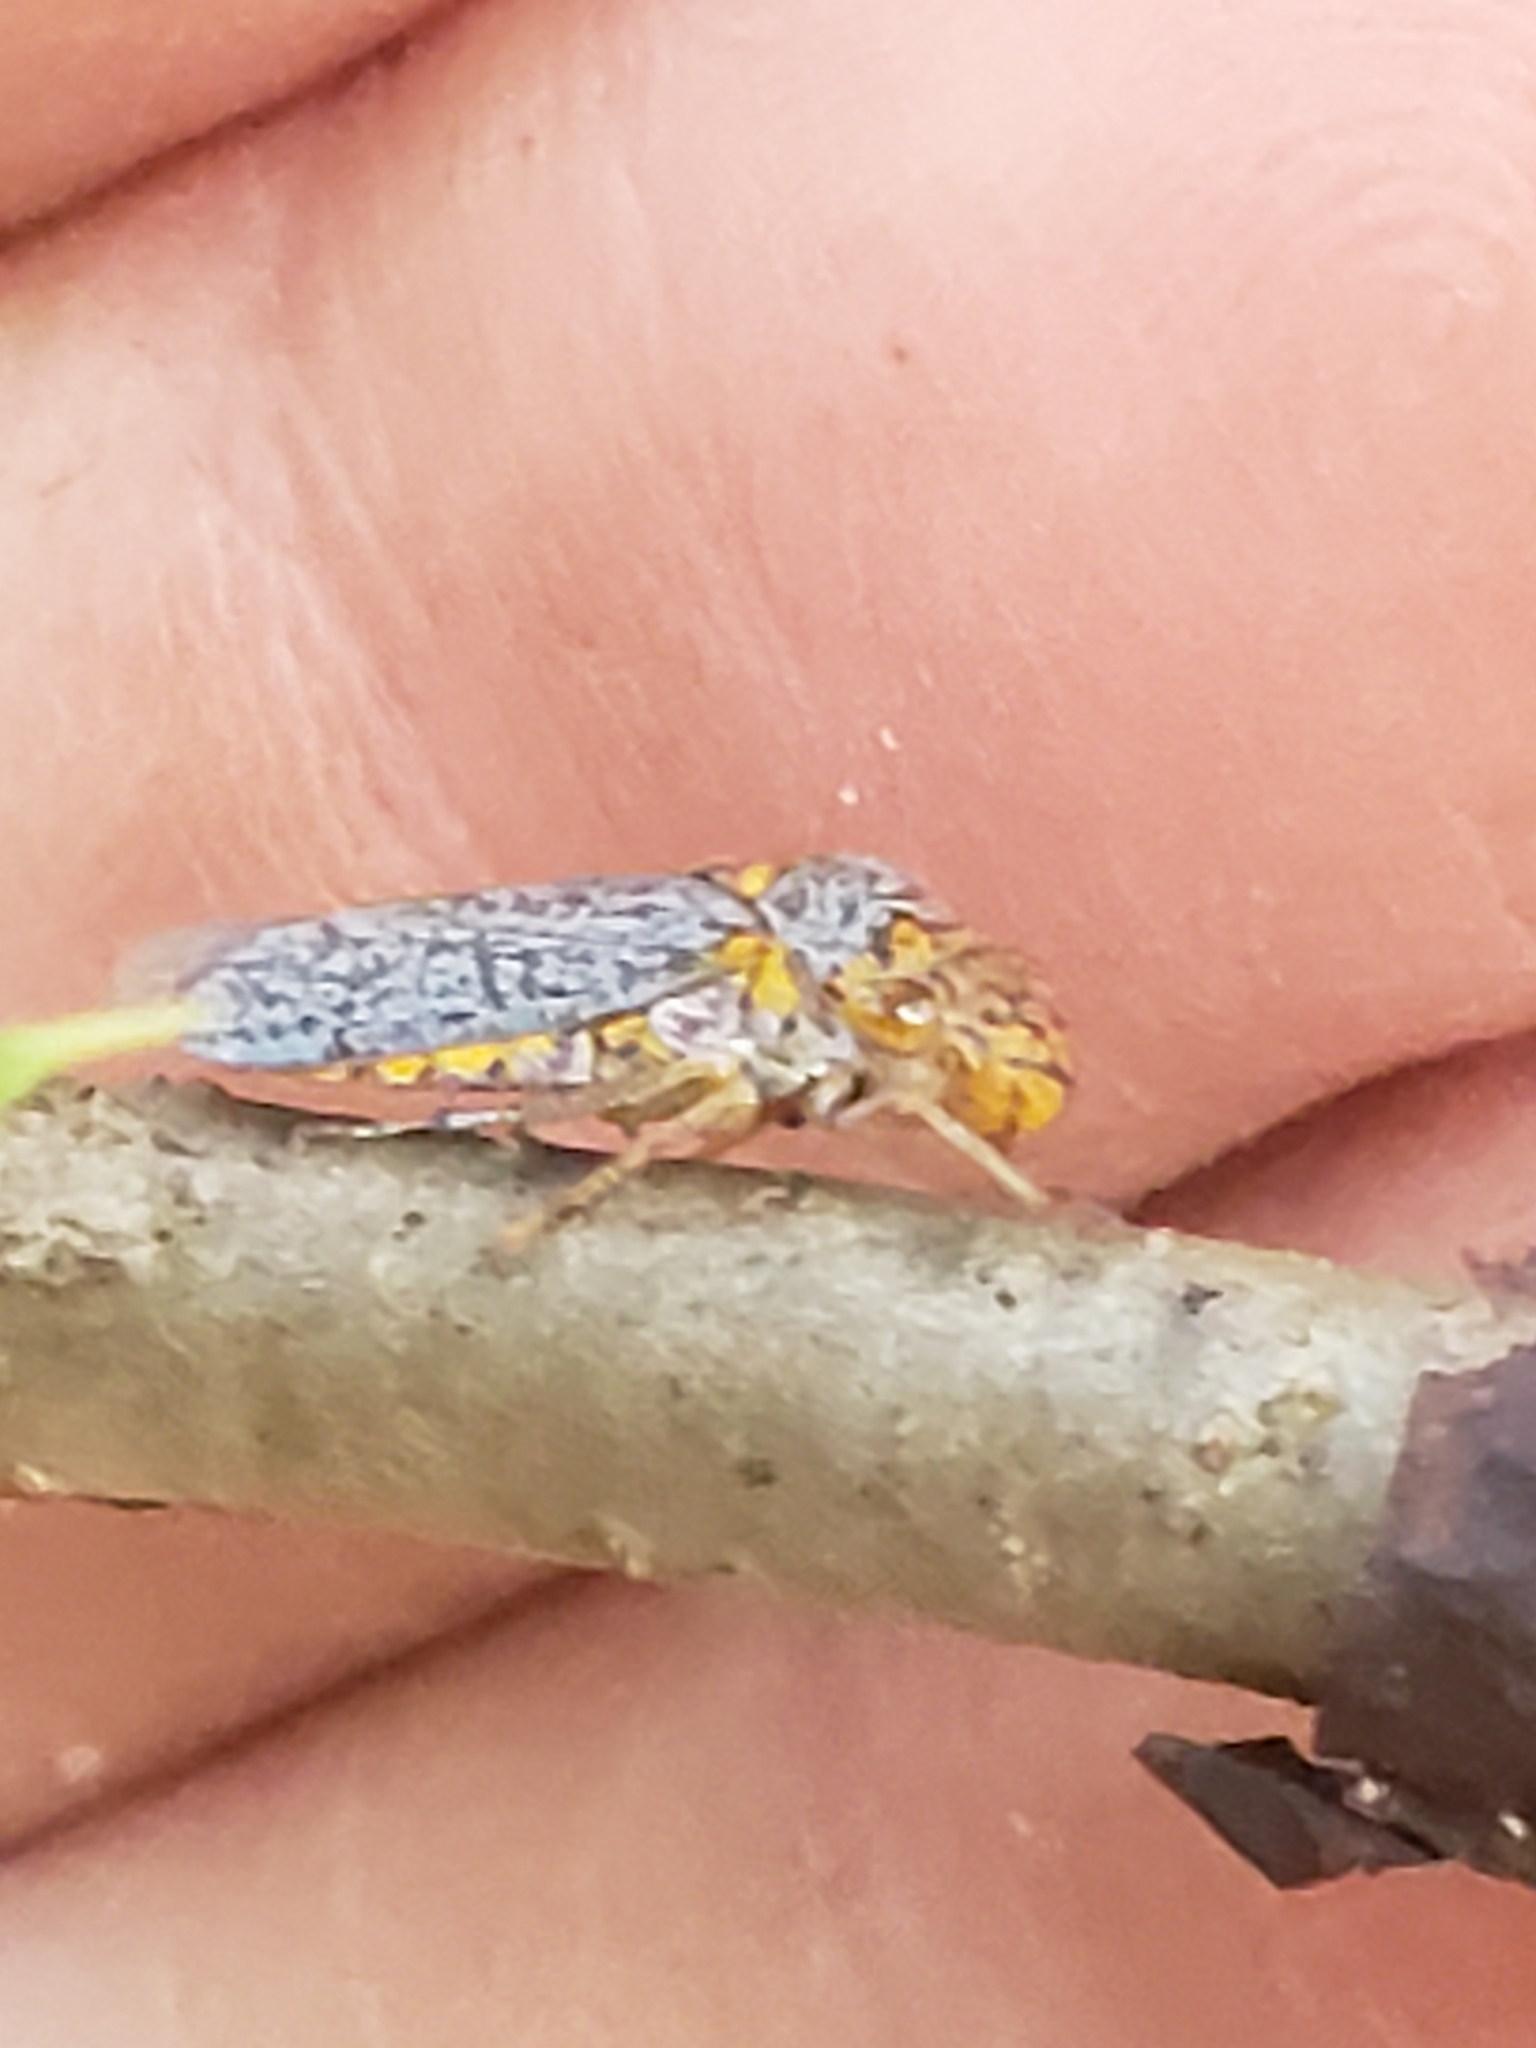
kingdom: Animalia
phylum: Arthropoda
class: Insecta
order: Hemiptera
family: Cicadellidae
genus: Oncometopia
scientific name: Oncometopia orbona
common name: Broad-headed sharpshooter
